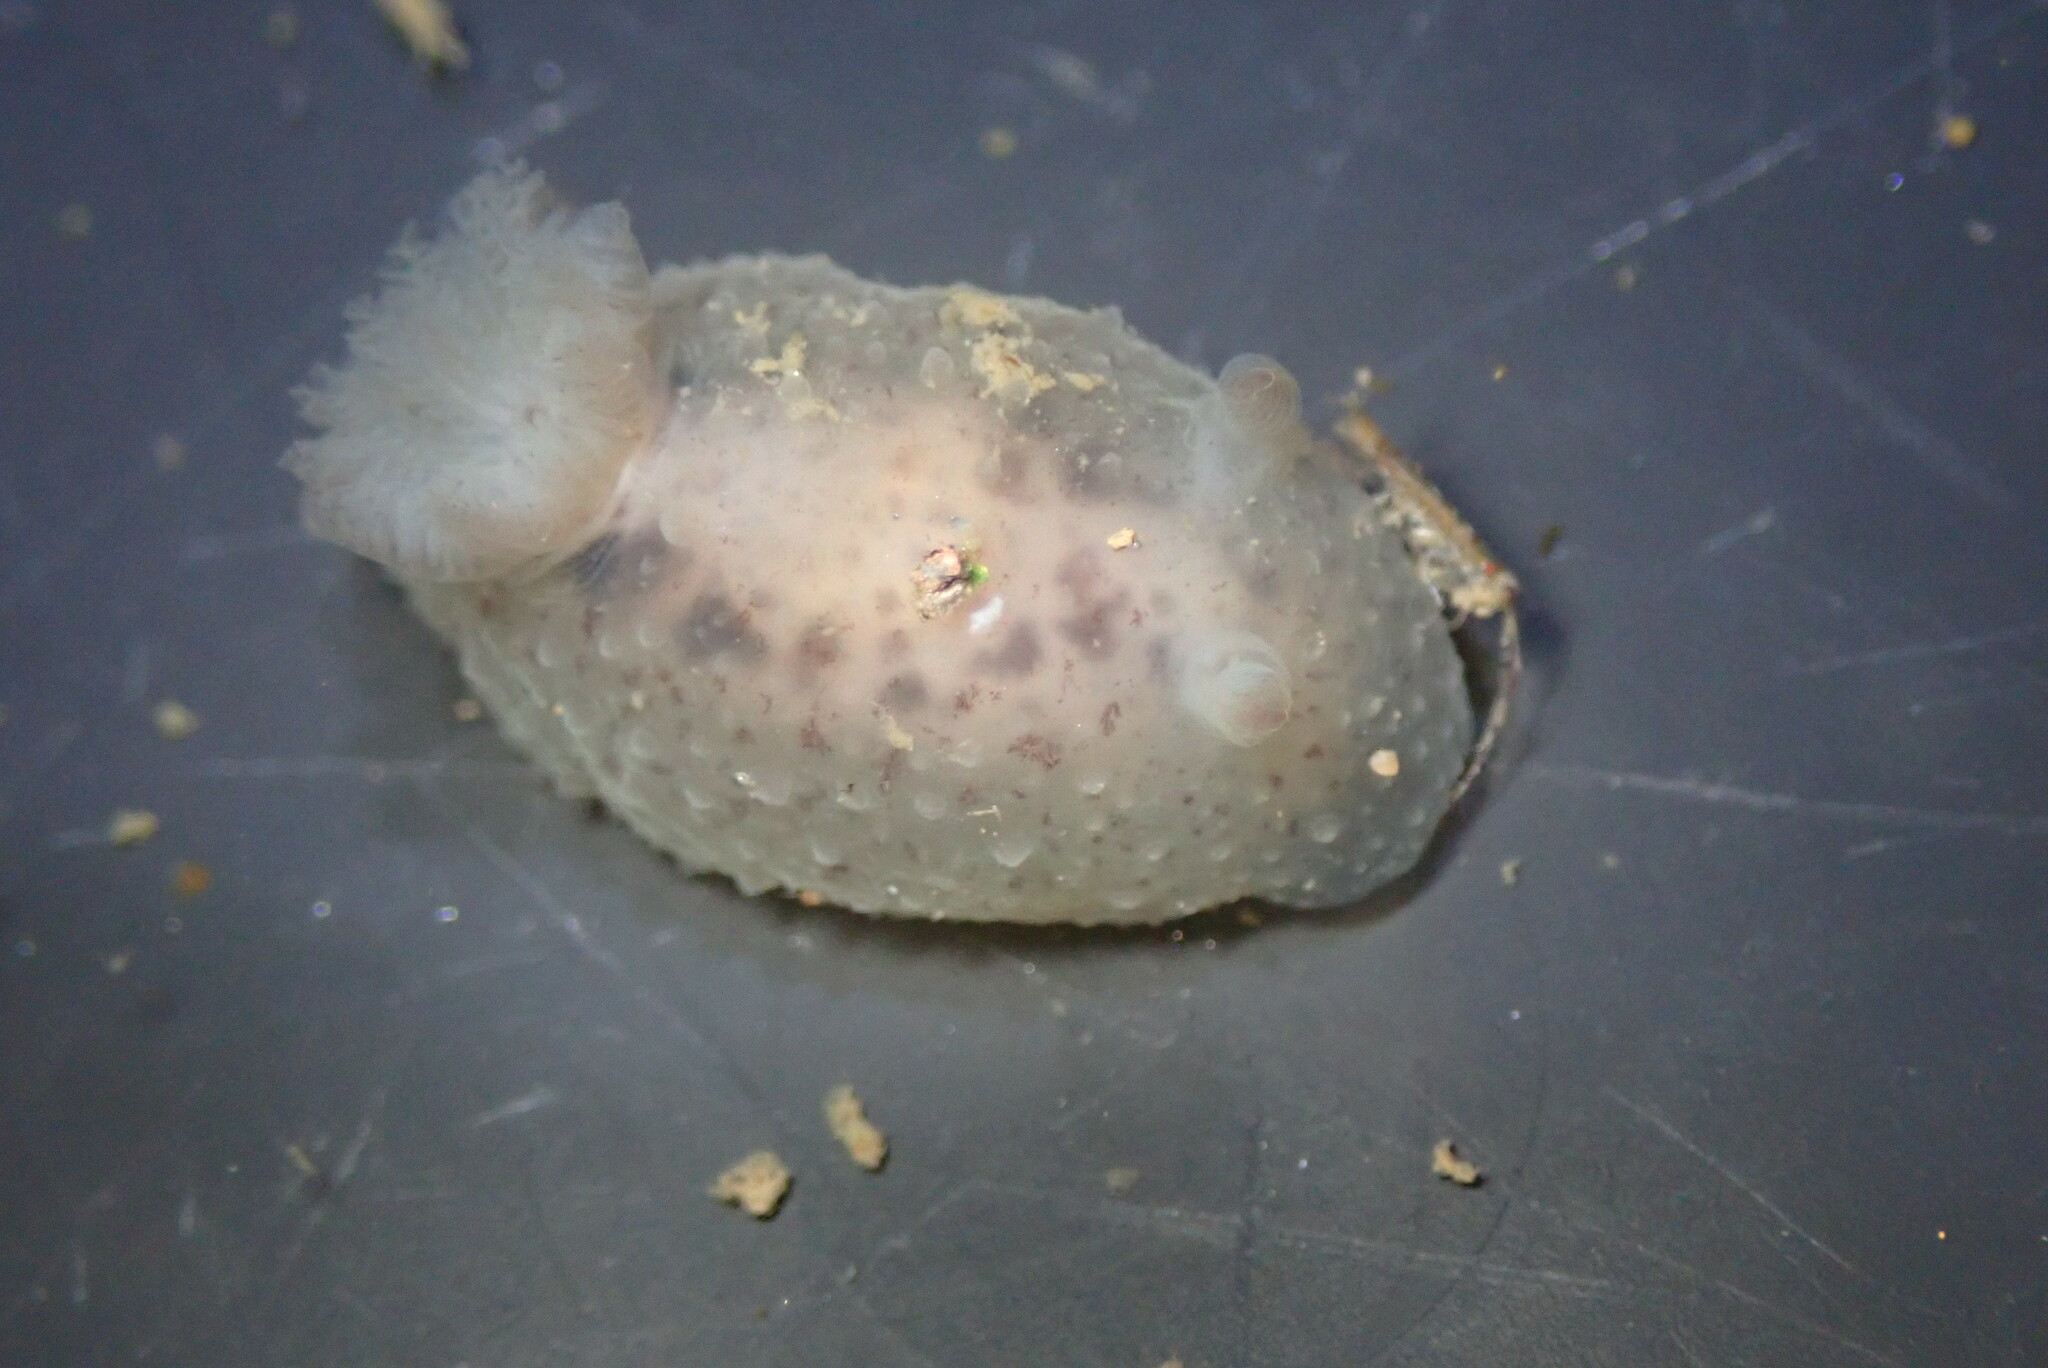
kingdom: Animalia
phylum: Mollusca
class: Gastropoda
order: Nudibranchia
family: Actinocyclidae
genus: Hallaxa
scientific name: Hallaxa chani
